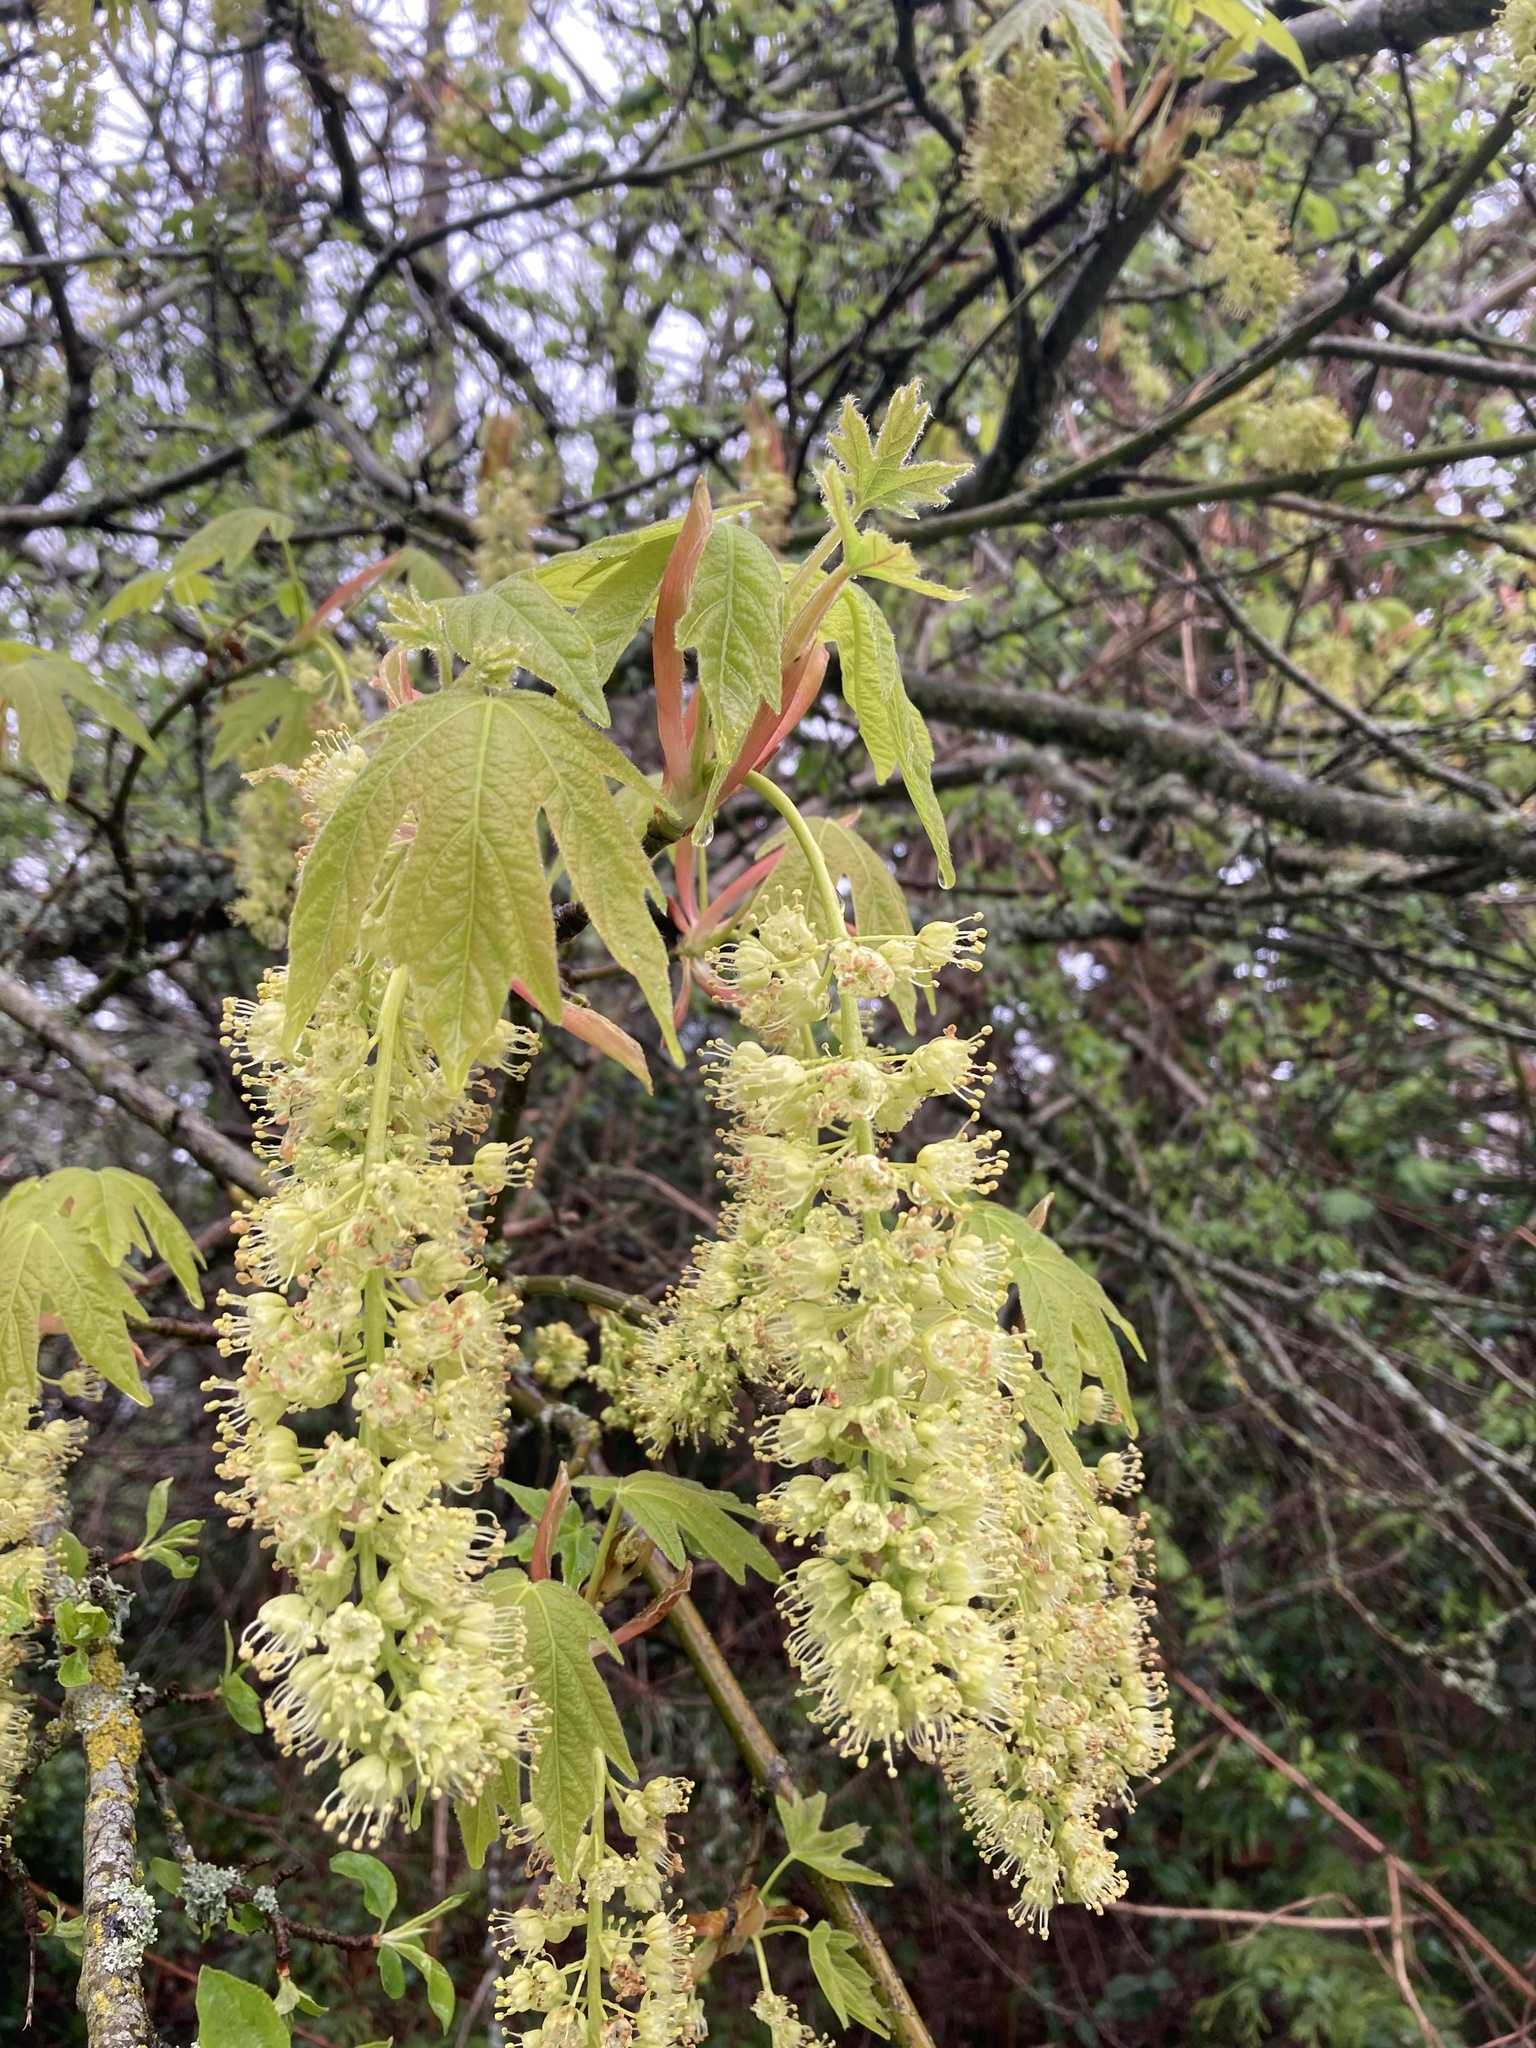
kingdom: Plantae
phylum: Tracheophyta
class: Magnoliopsida
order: Sapindales
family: Sapindaceae
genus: Acer
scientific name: Acer macrophyllum
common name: Oregon maple
